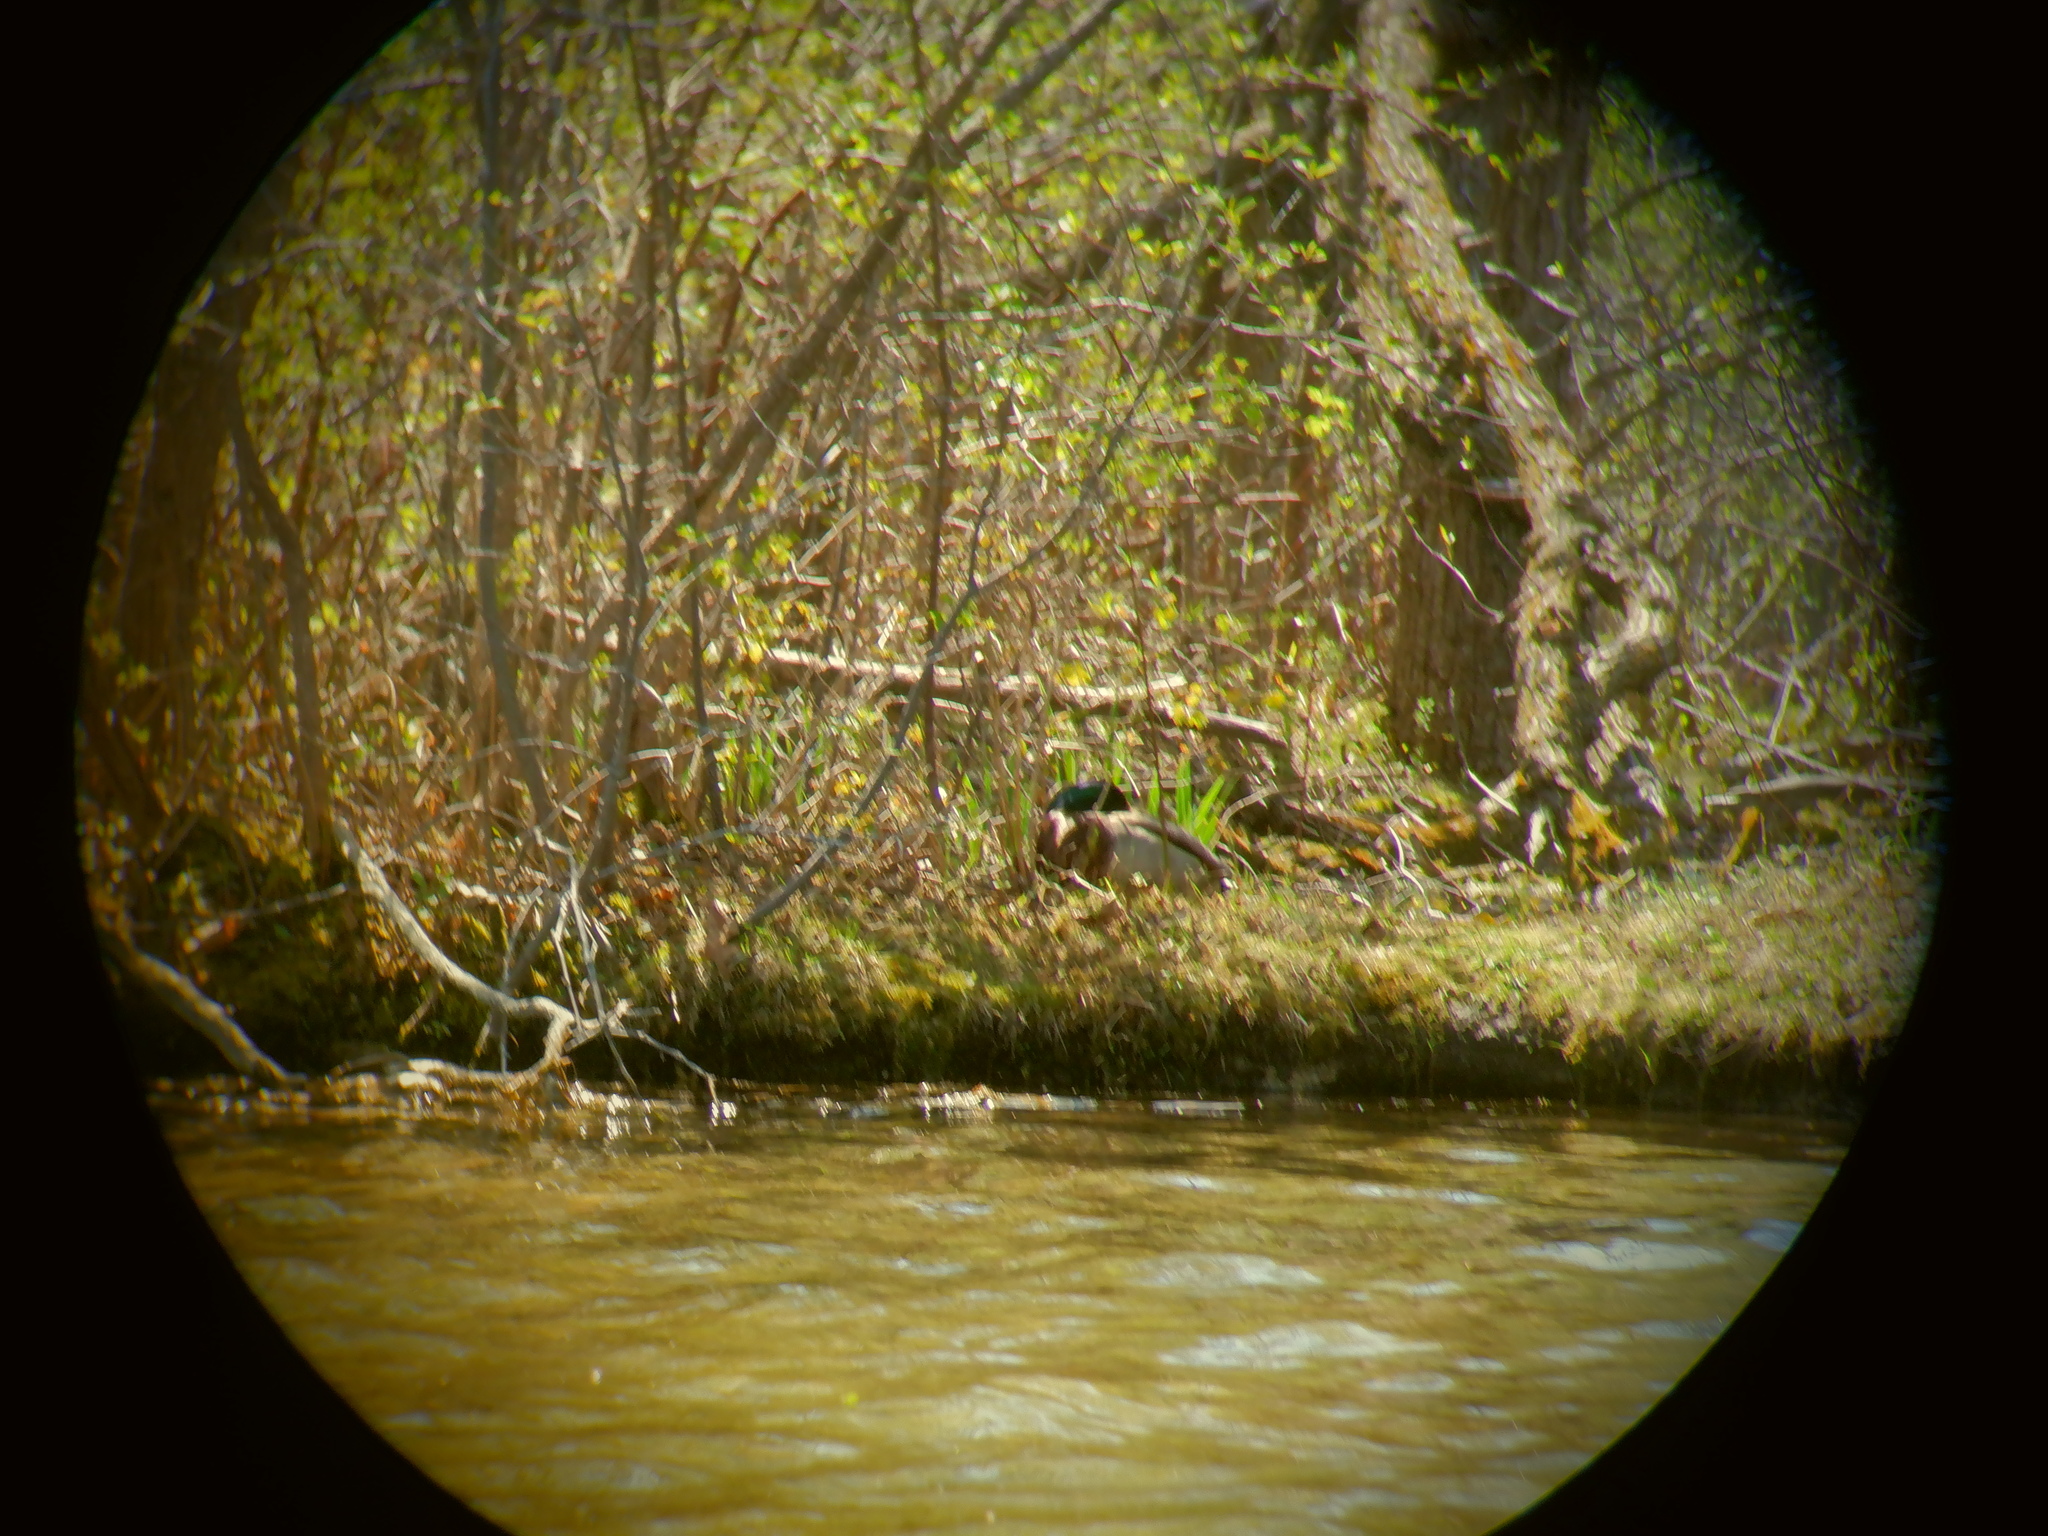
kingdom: Animalia
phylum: Chordata
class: Aves
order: Anseriformes
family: Anatidae
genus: Anas
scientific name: Anas platyrhynchos
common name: Mallard
